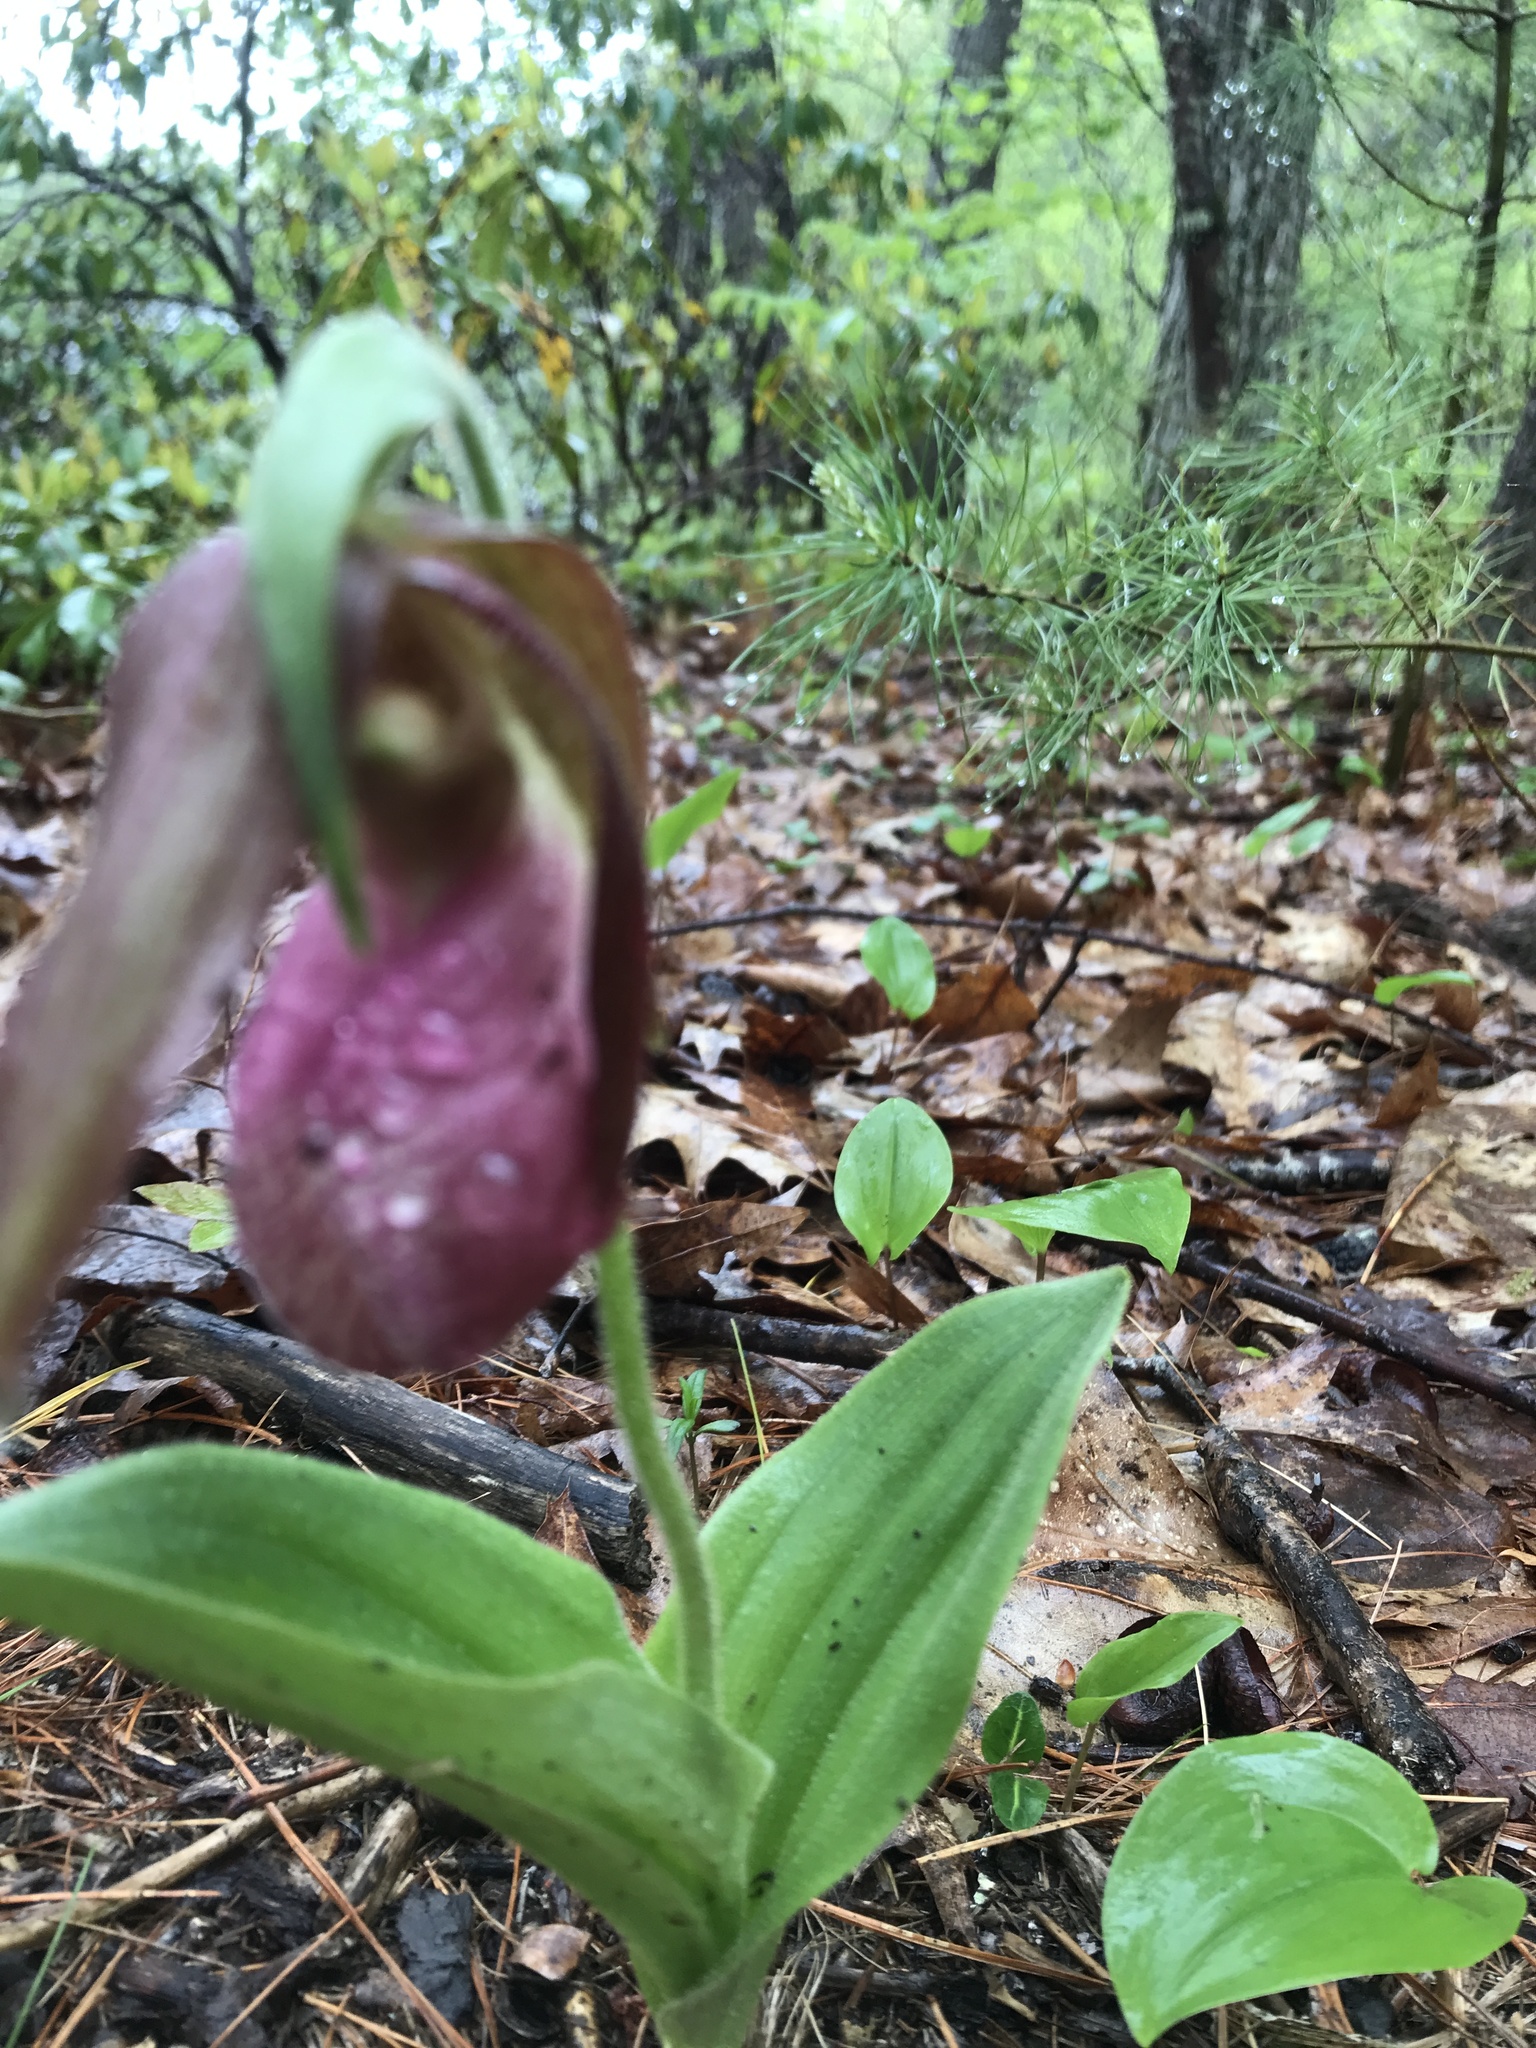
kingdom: Plantae
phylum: Tracheophyta
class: Liliopsida
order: Asparagales
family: Orchidaceae
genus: Cypripedium
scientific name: Cypripedium acaule
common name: Pink lady's-slipper
